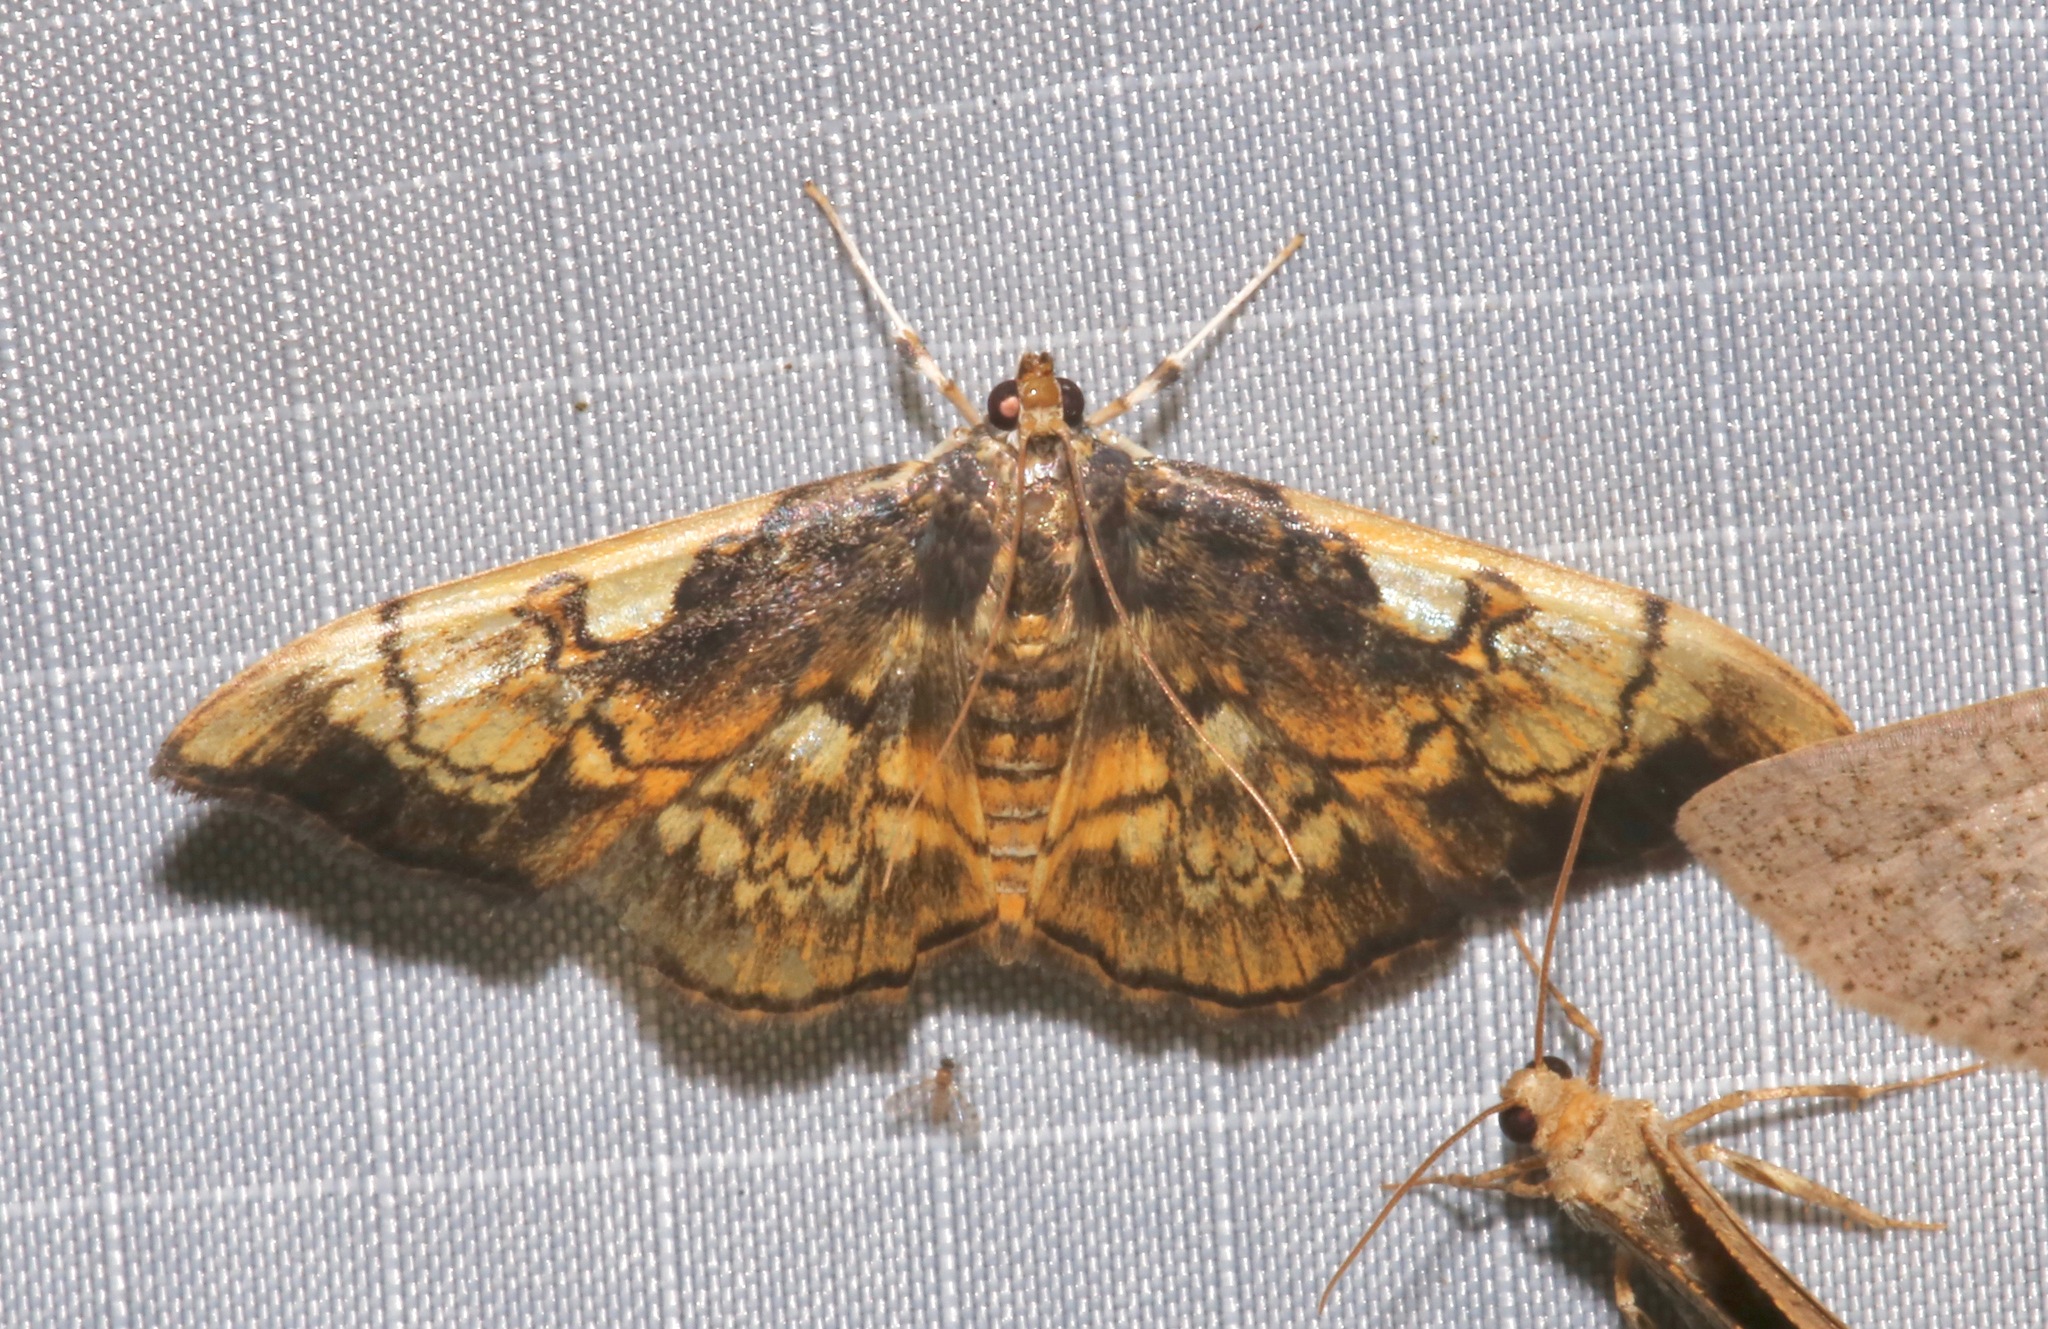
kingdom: Animalia
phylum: Arthropoda
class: Insecta
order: Lepidoptera
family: Crambidae
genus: Pantographa
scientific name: Pantographa
